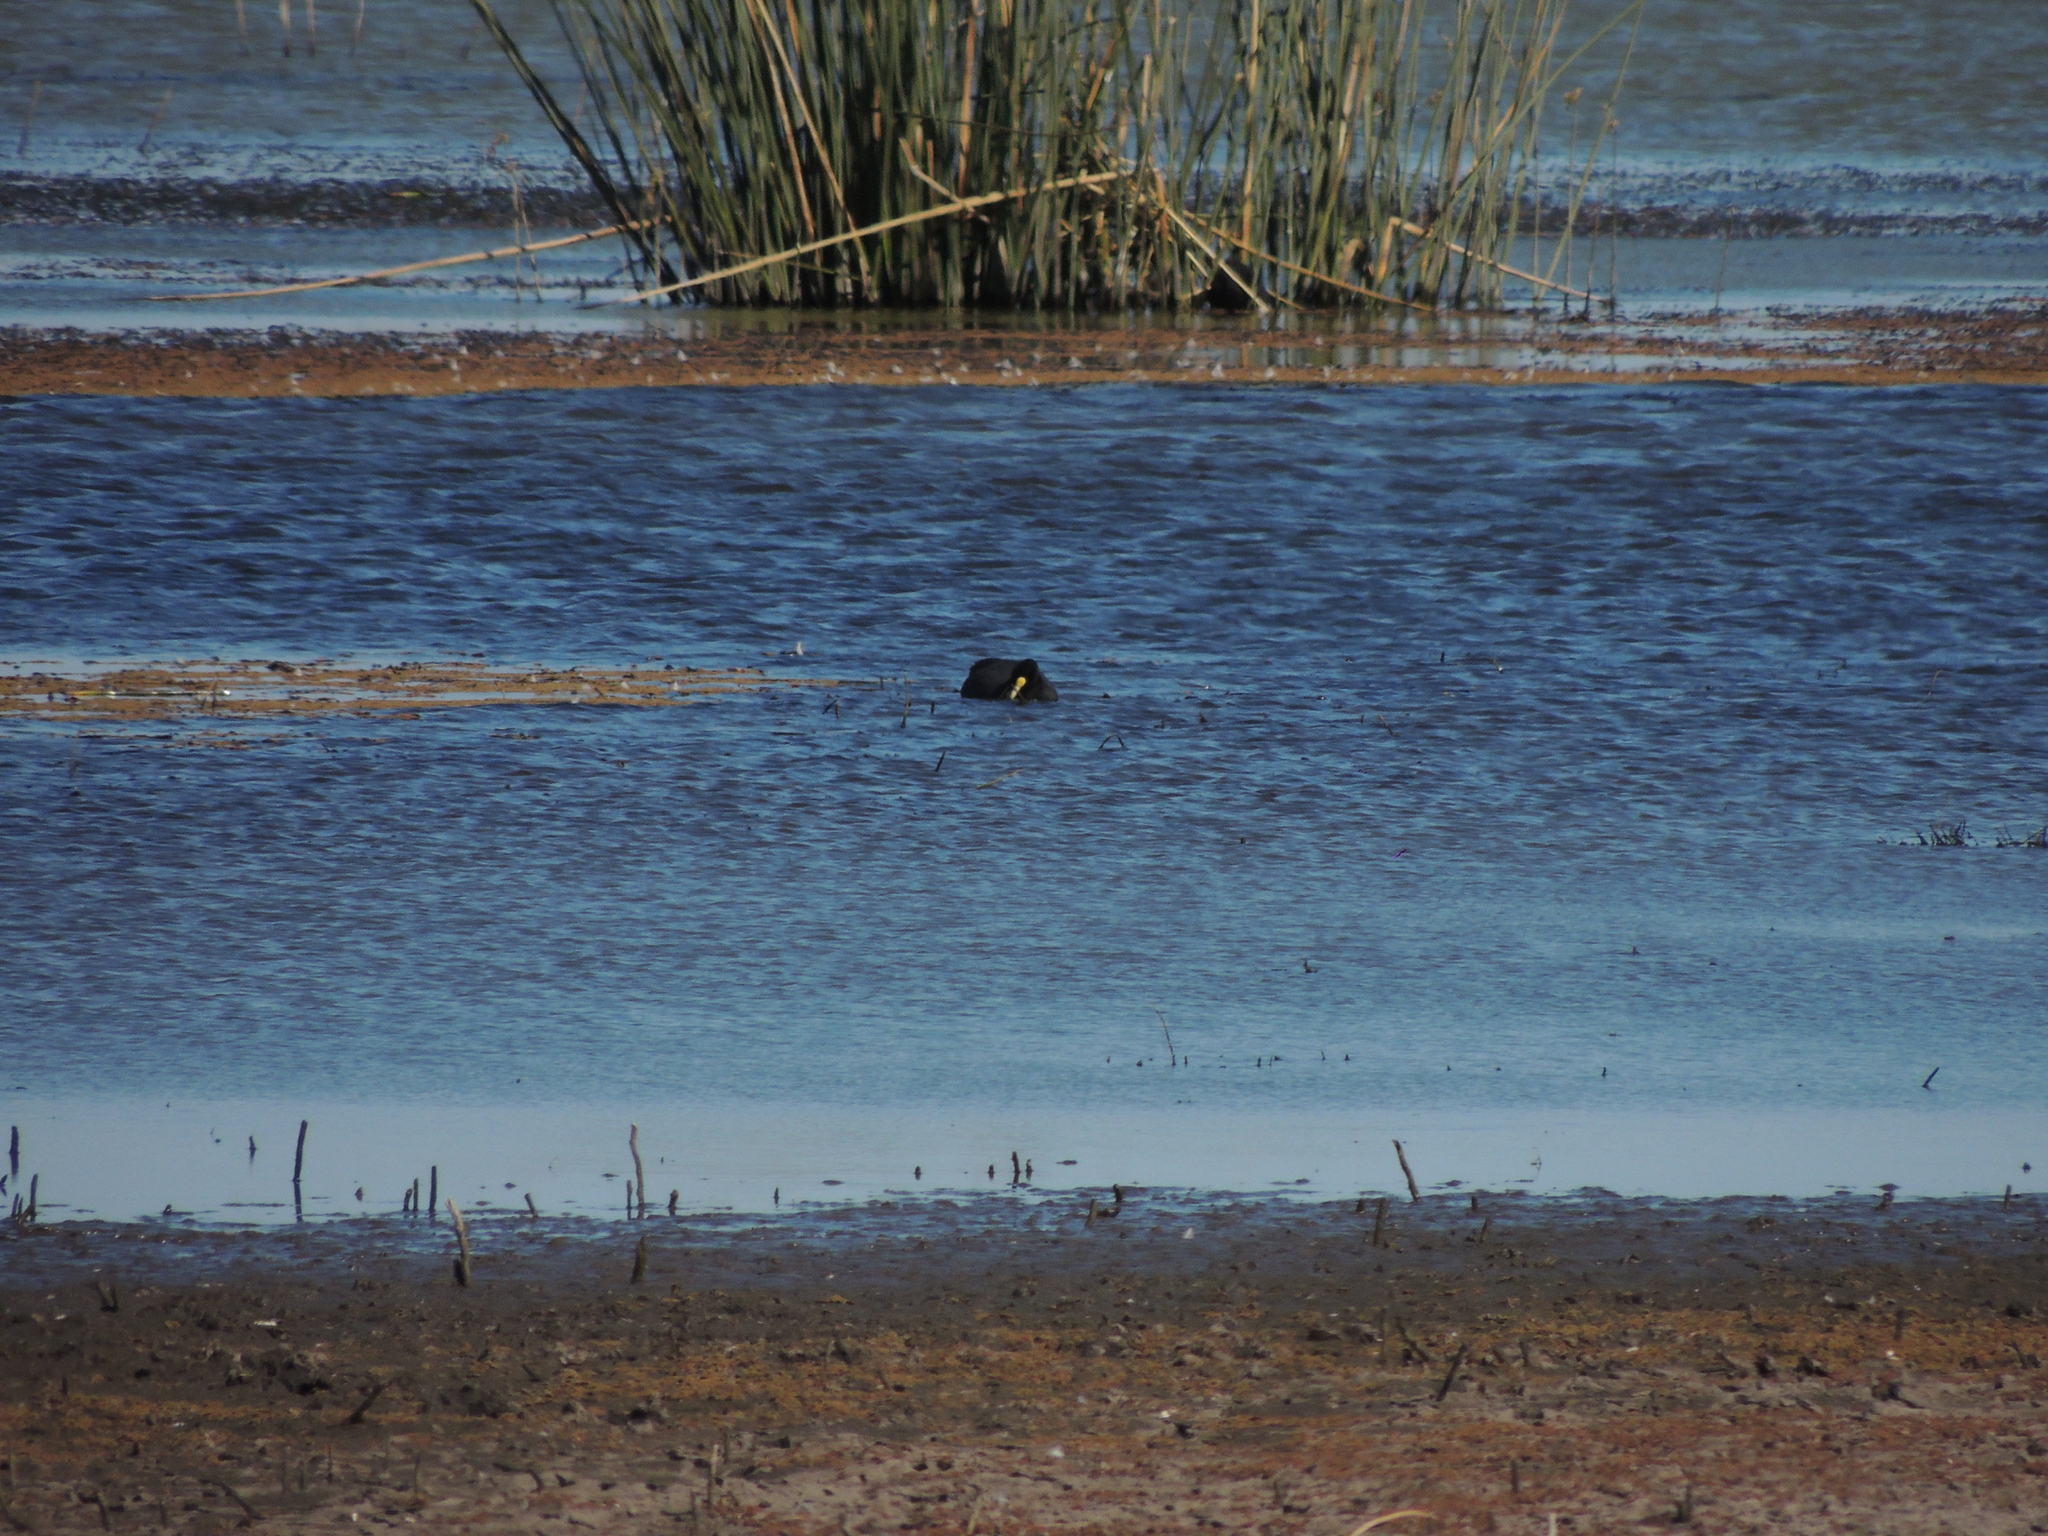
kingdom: Animalia
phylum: Chordata
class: Aves
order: Gruiformes
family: Rallidae
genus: Fulica
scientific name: Fulica leucoptera
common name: White-winged coot
